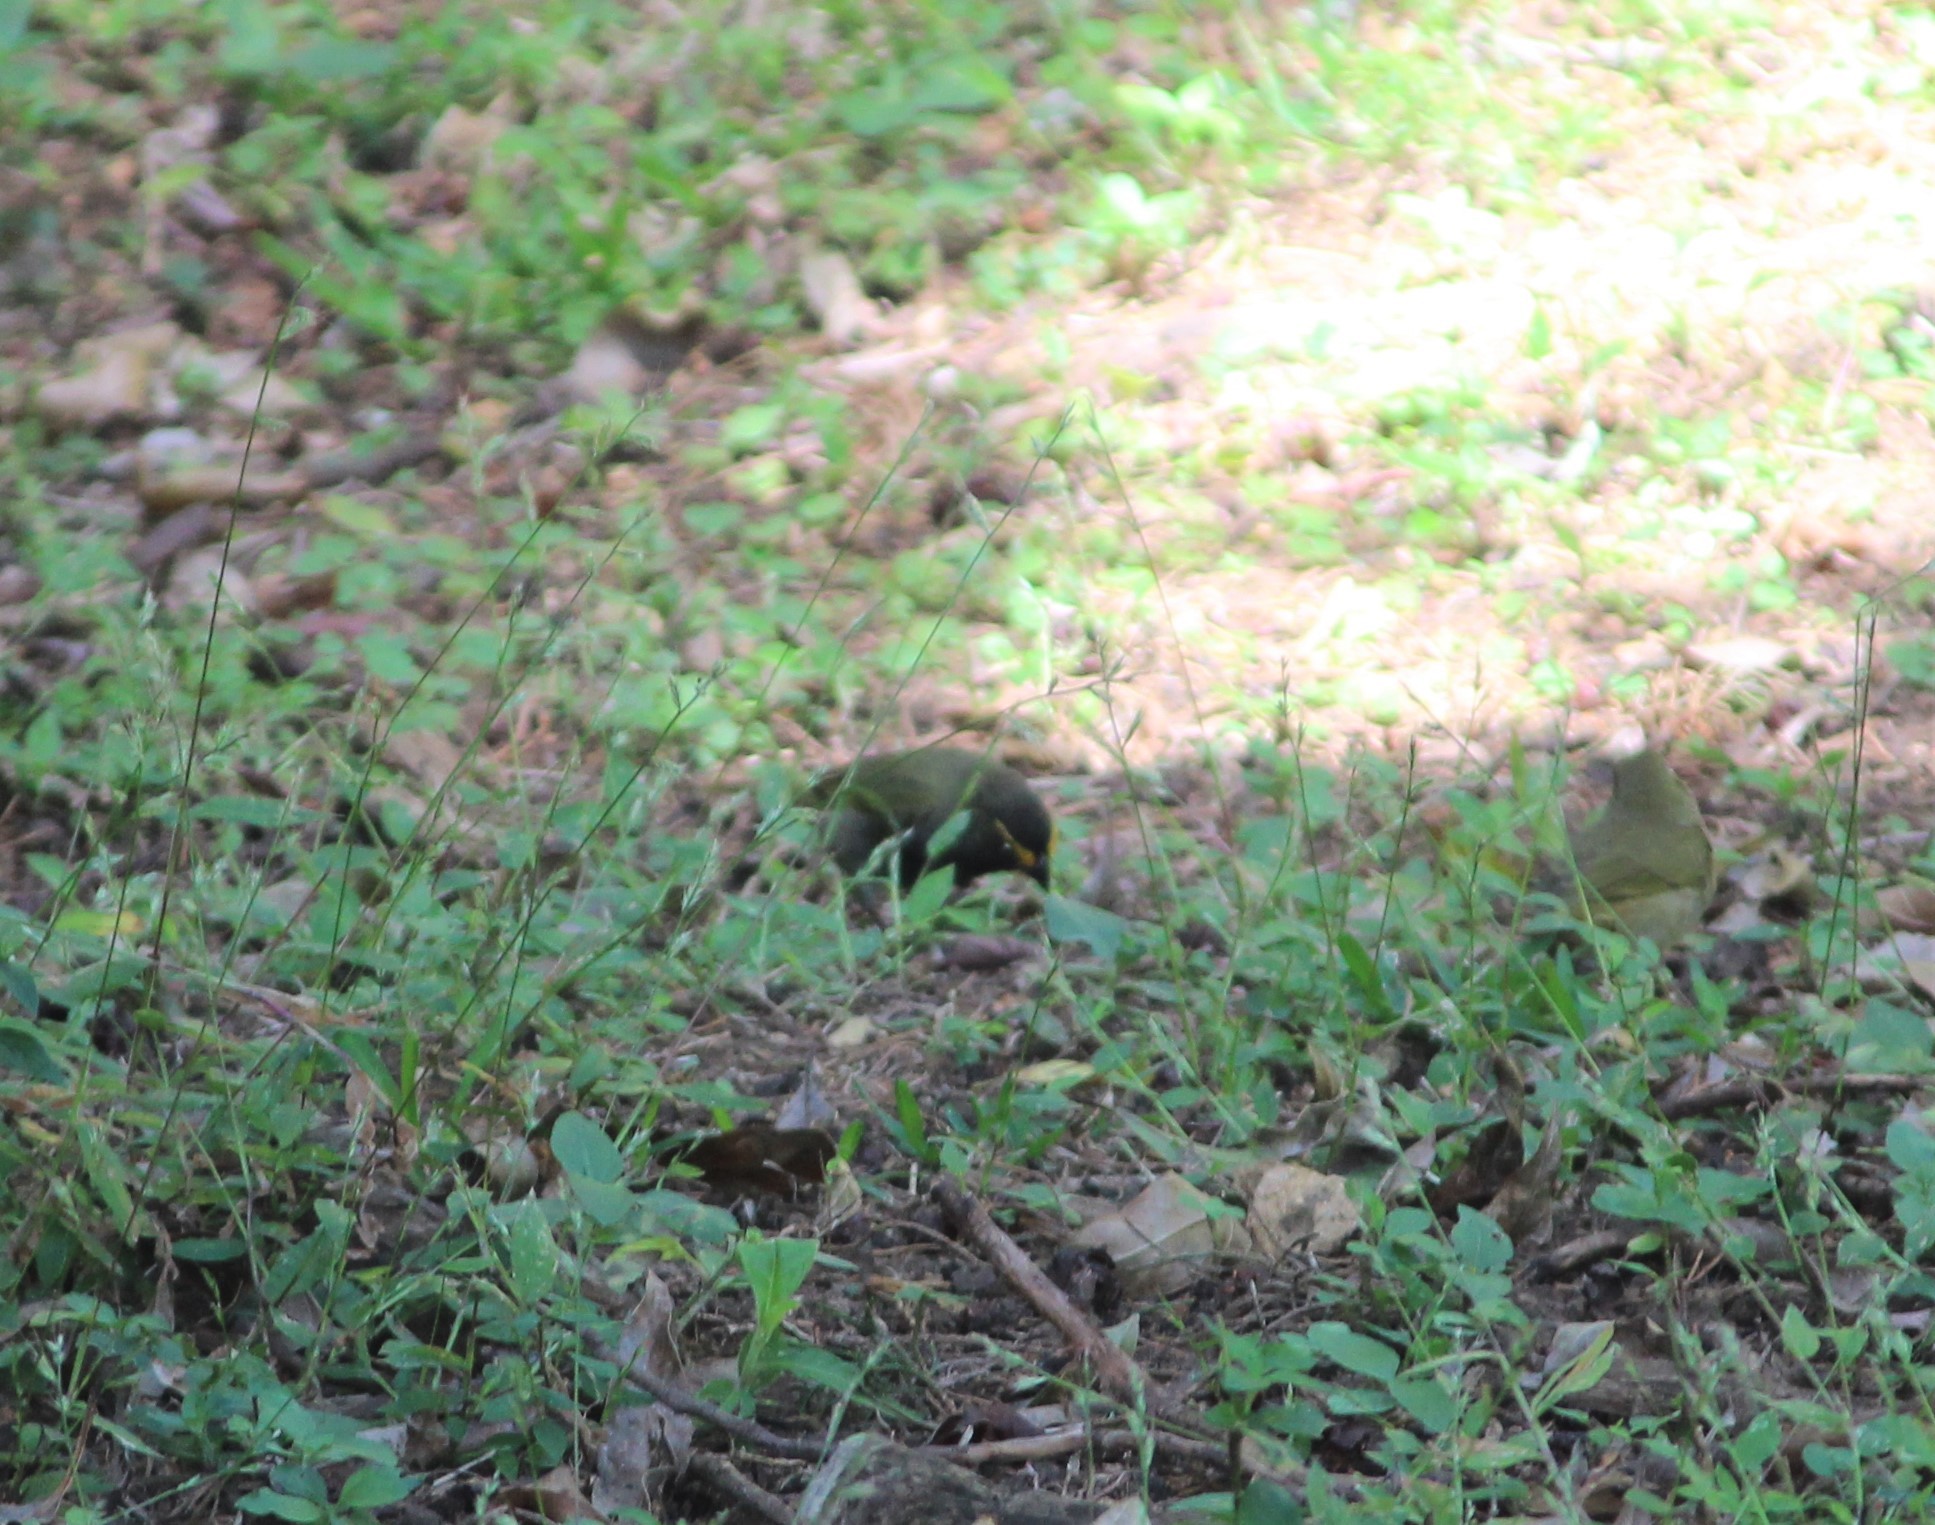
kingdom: Animalia
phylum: Chordata
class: Aves
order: Passeriformes
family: Thraupidae
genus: Tiaris
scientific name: Tiaris olivaceus
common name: Yellow-faced grassquit
